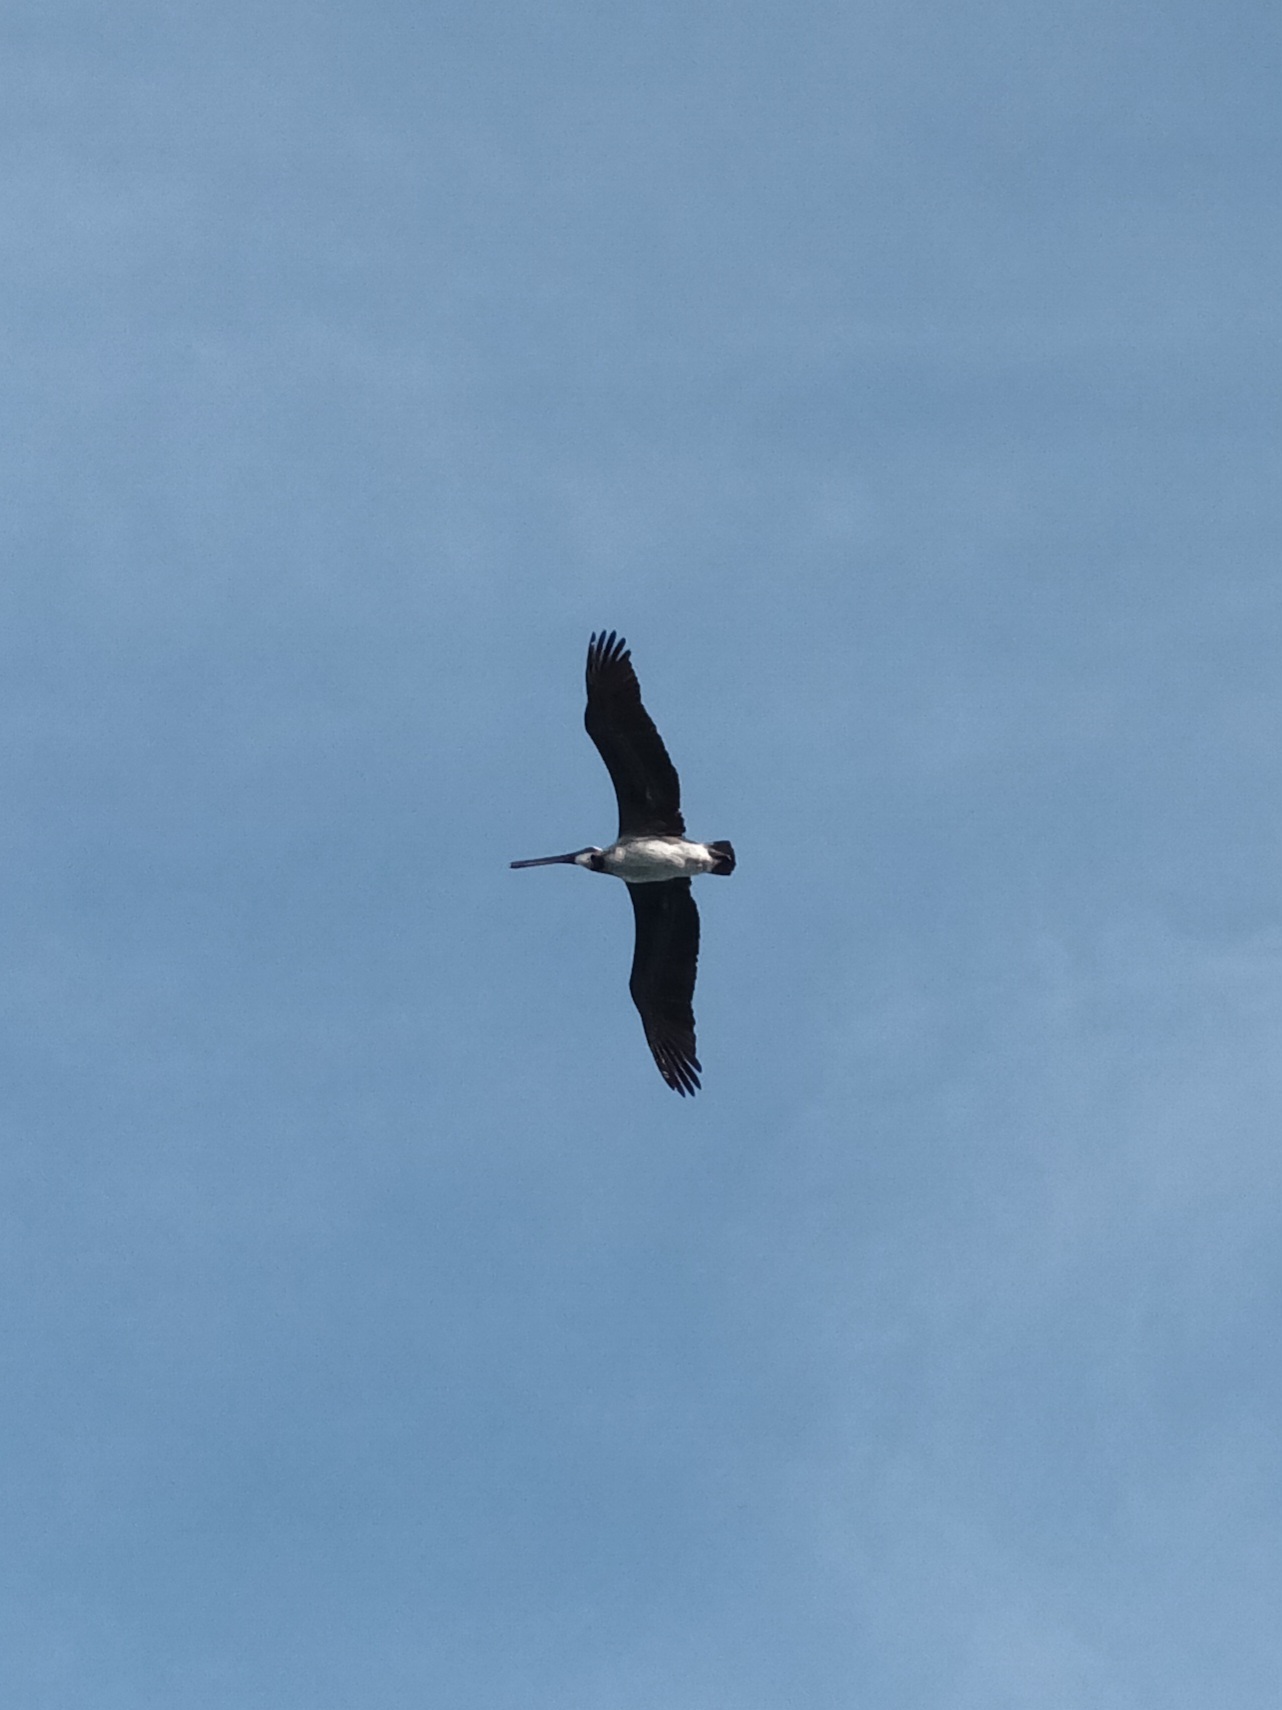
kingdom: Animalia
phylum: Chordata
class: Aves
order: Pelecaniformes
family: Pelecanidae
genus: Pelecanus
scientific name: Pelecanus occidentalis
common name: Brown pelican
